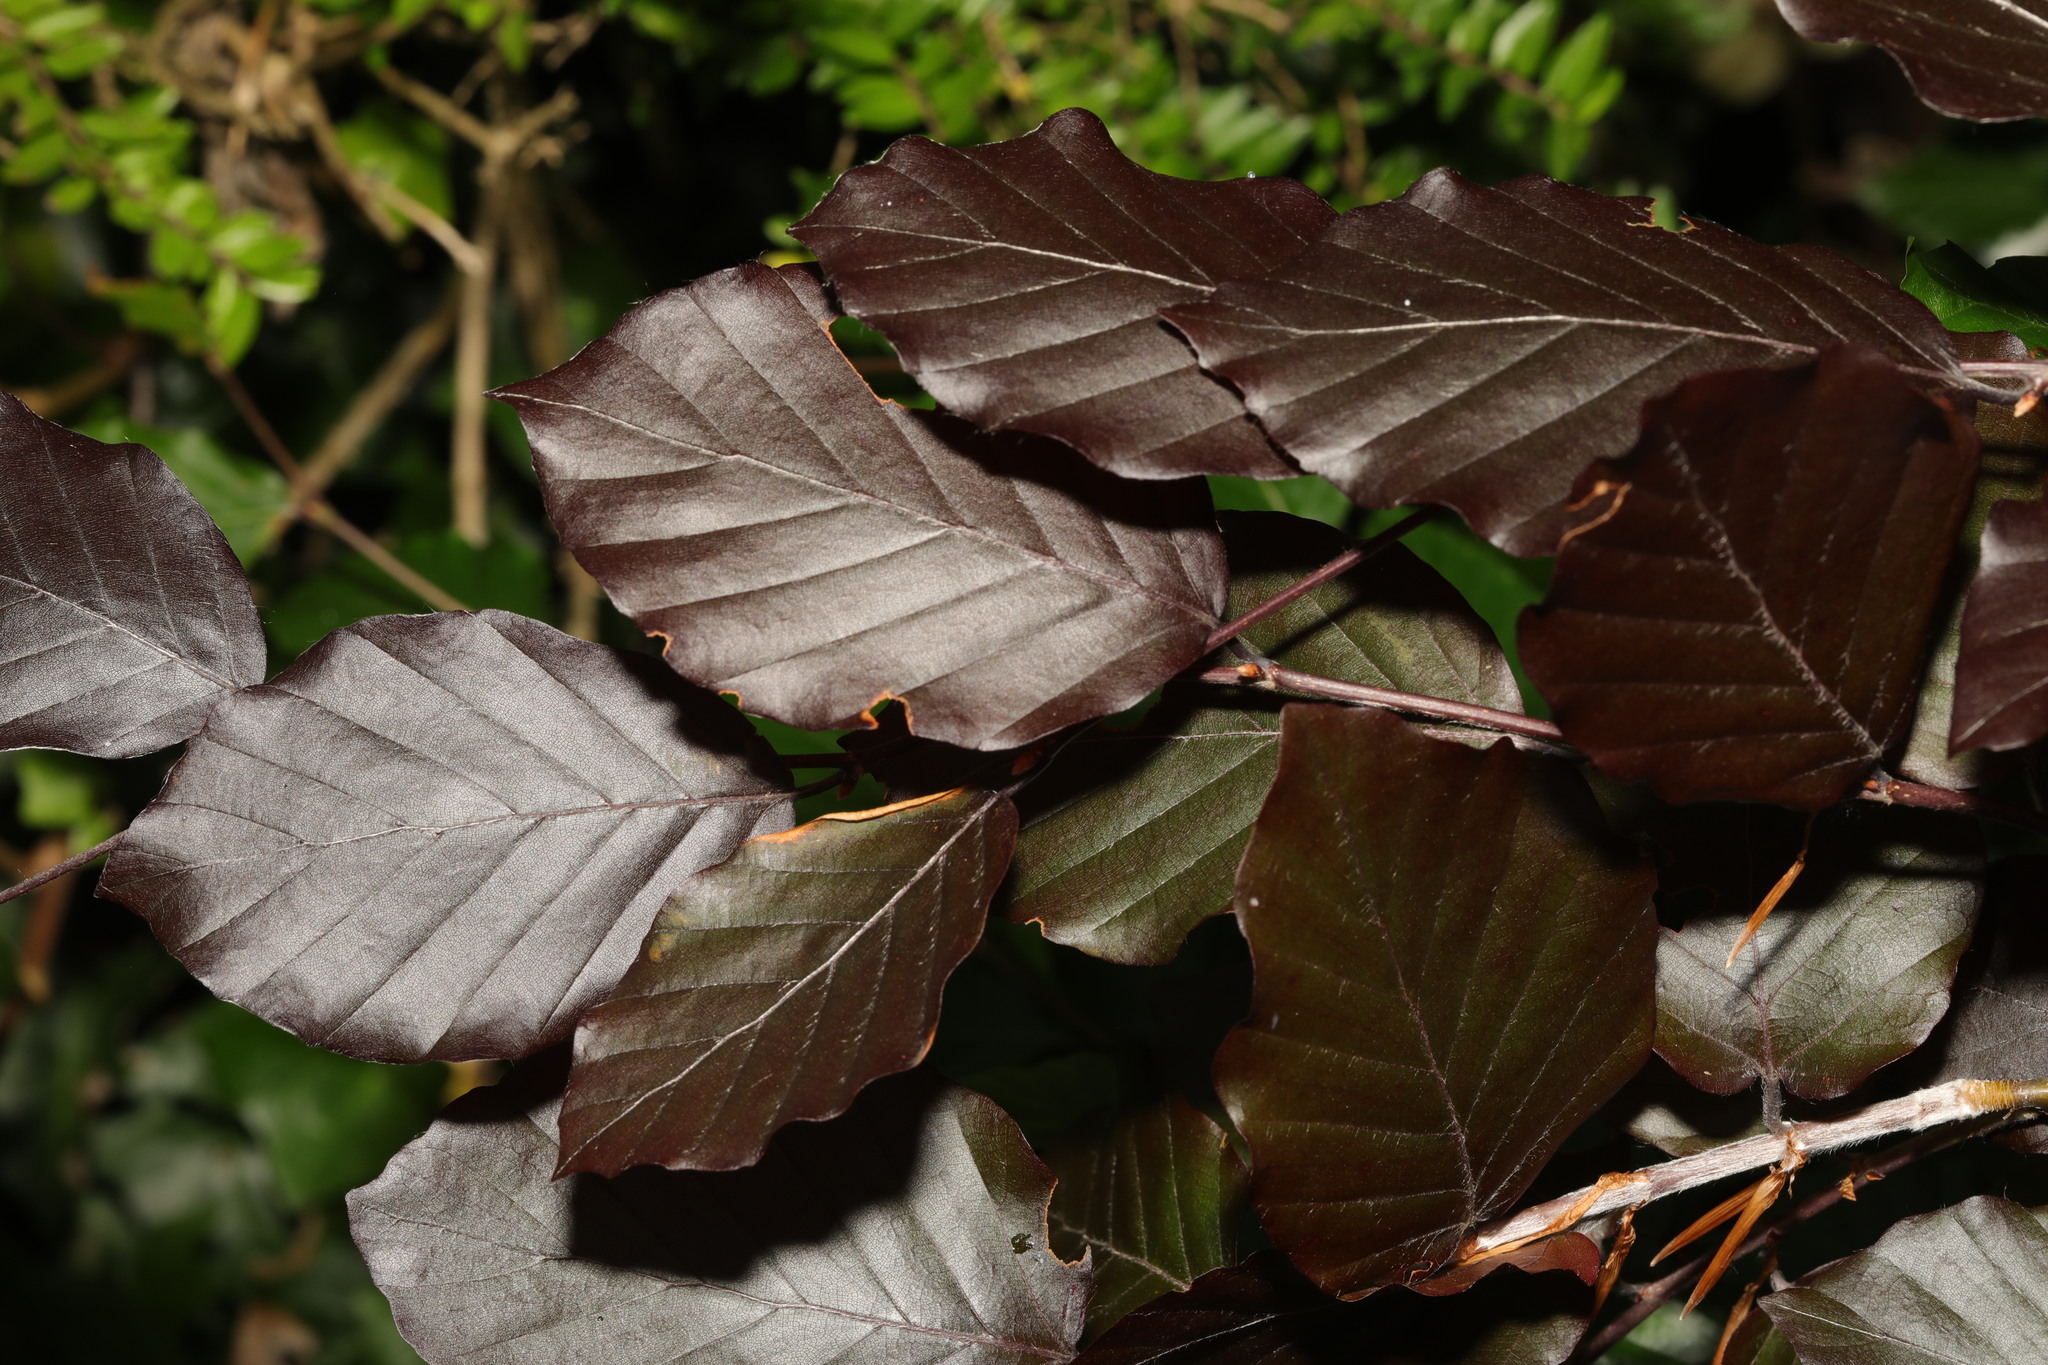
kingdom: Plantae
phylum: Tracheophyta
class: Magnoliopsida
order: Fagales
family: Fagaceae
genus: Fagus
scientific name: Fagus sylvatica
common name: Beech
